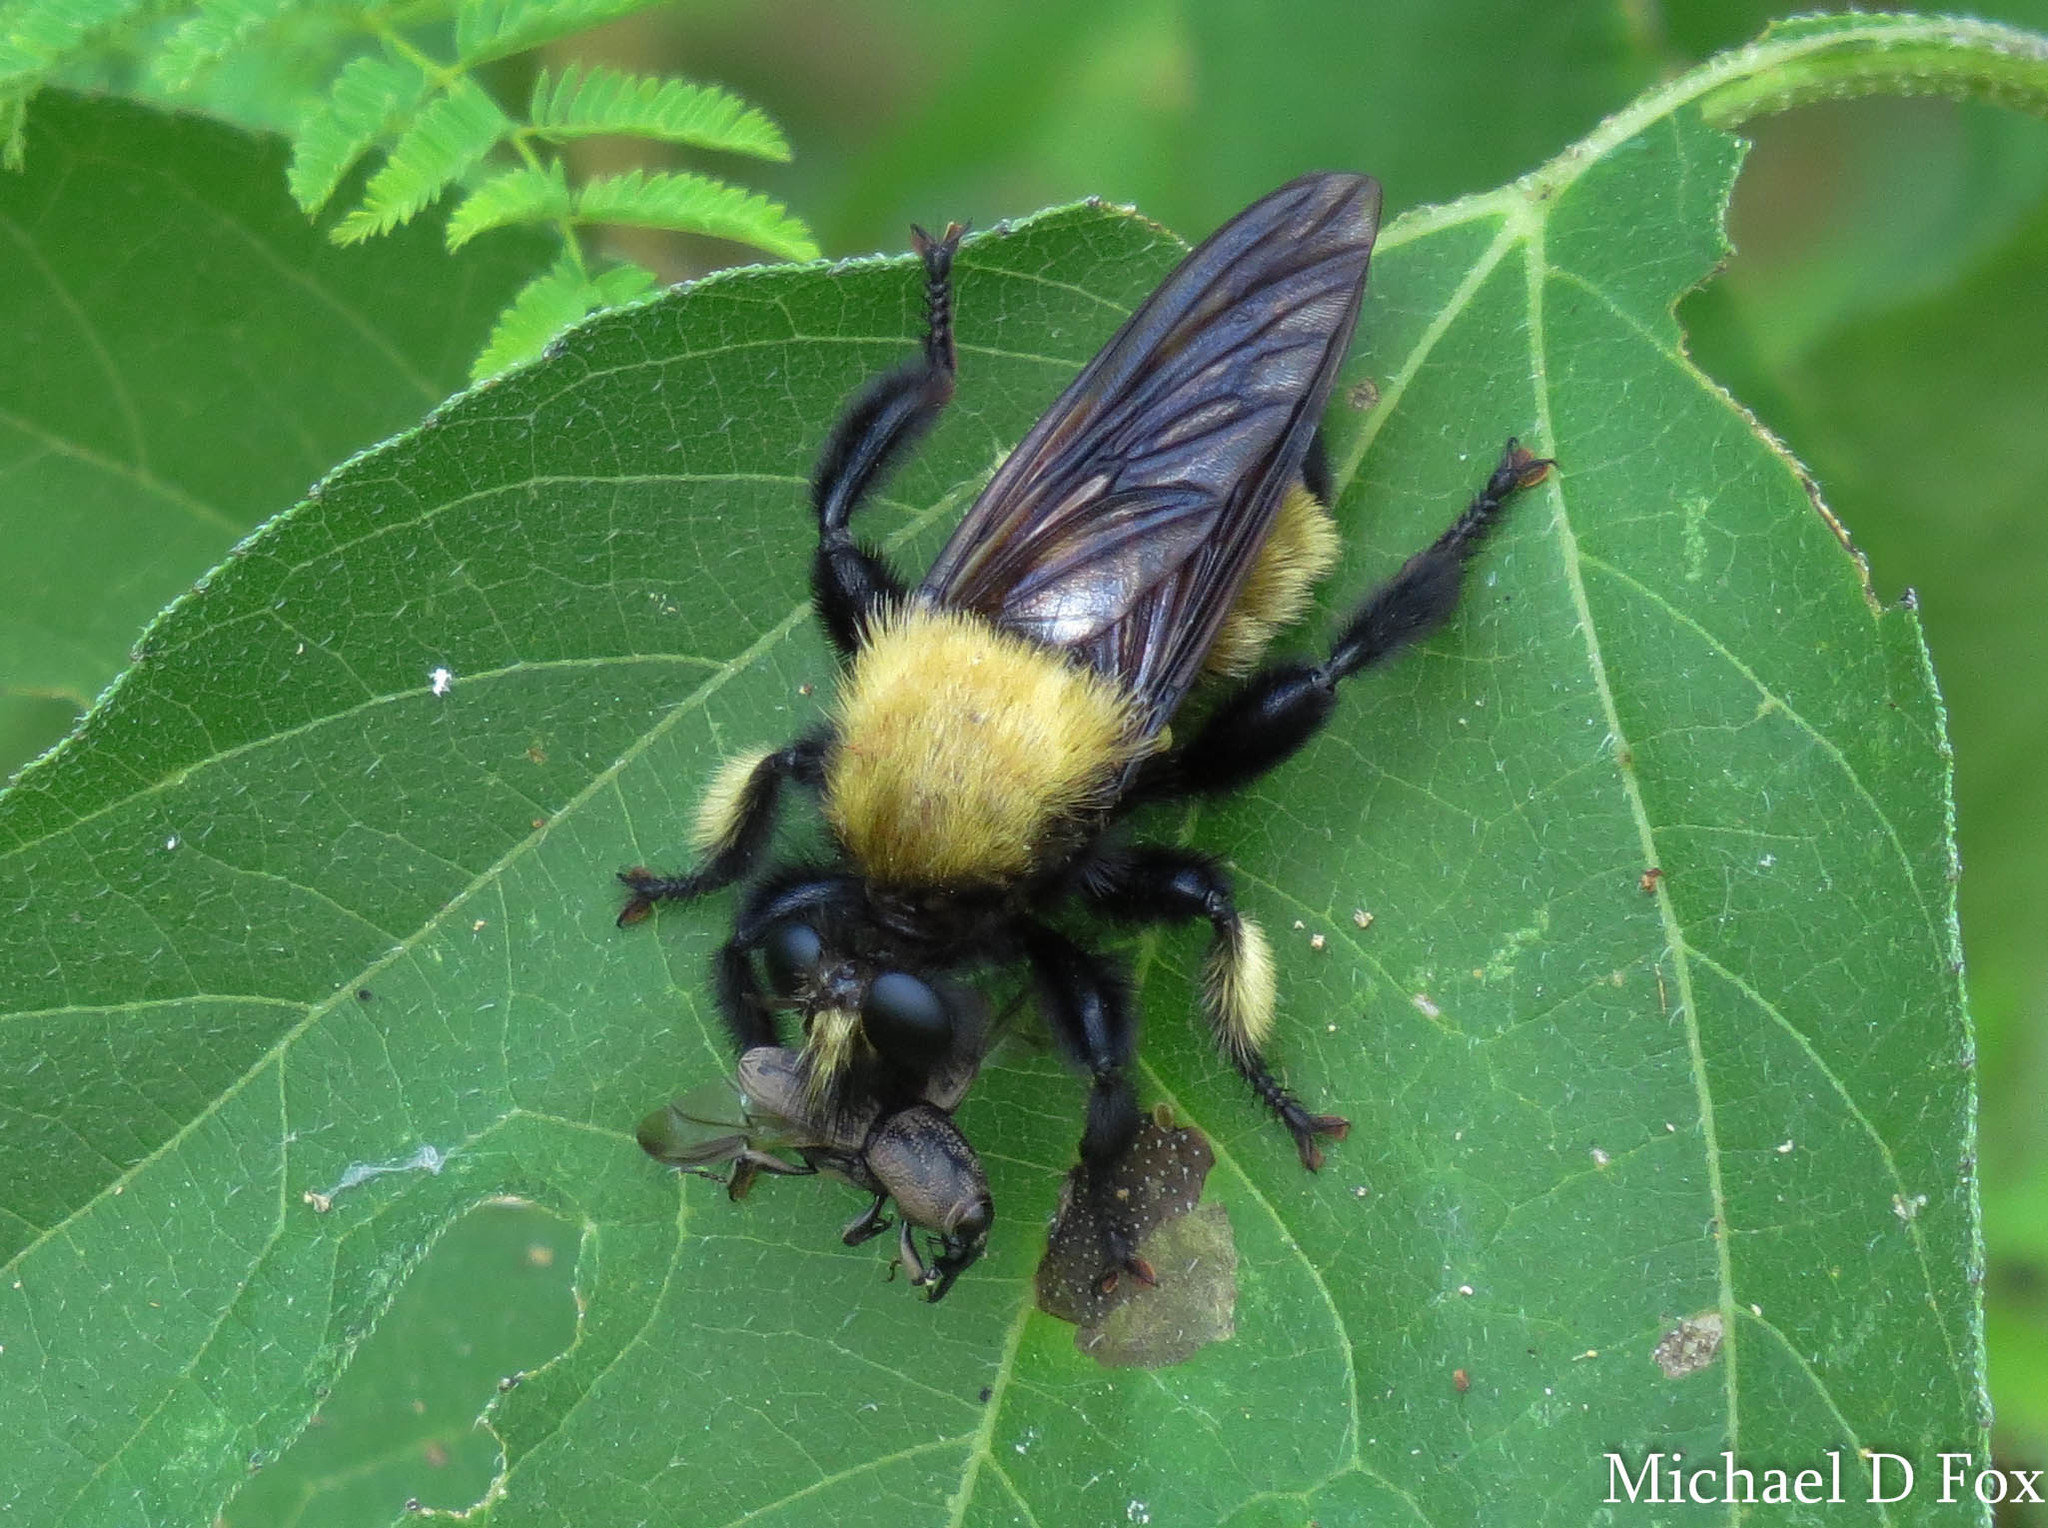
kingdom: Animalia
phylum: Arthropoda
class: Insecta
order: Diptera
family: Asilidae
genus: Laphria
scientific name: Laphria macquarti
